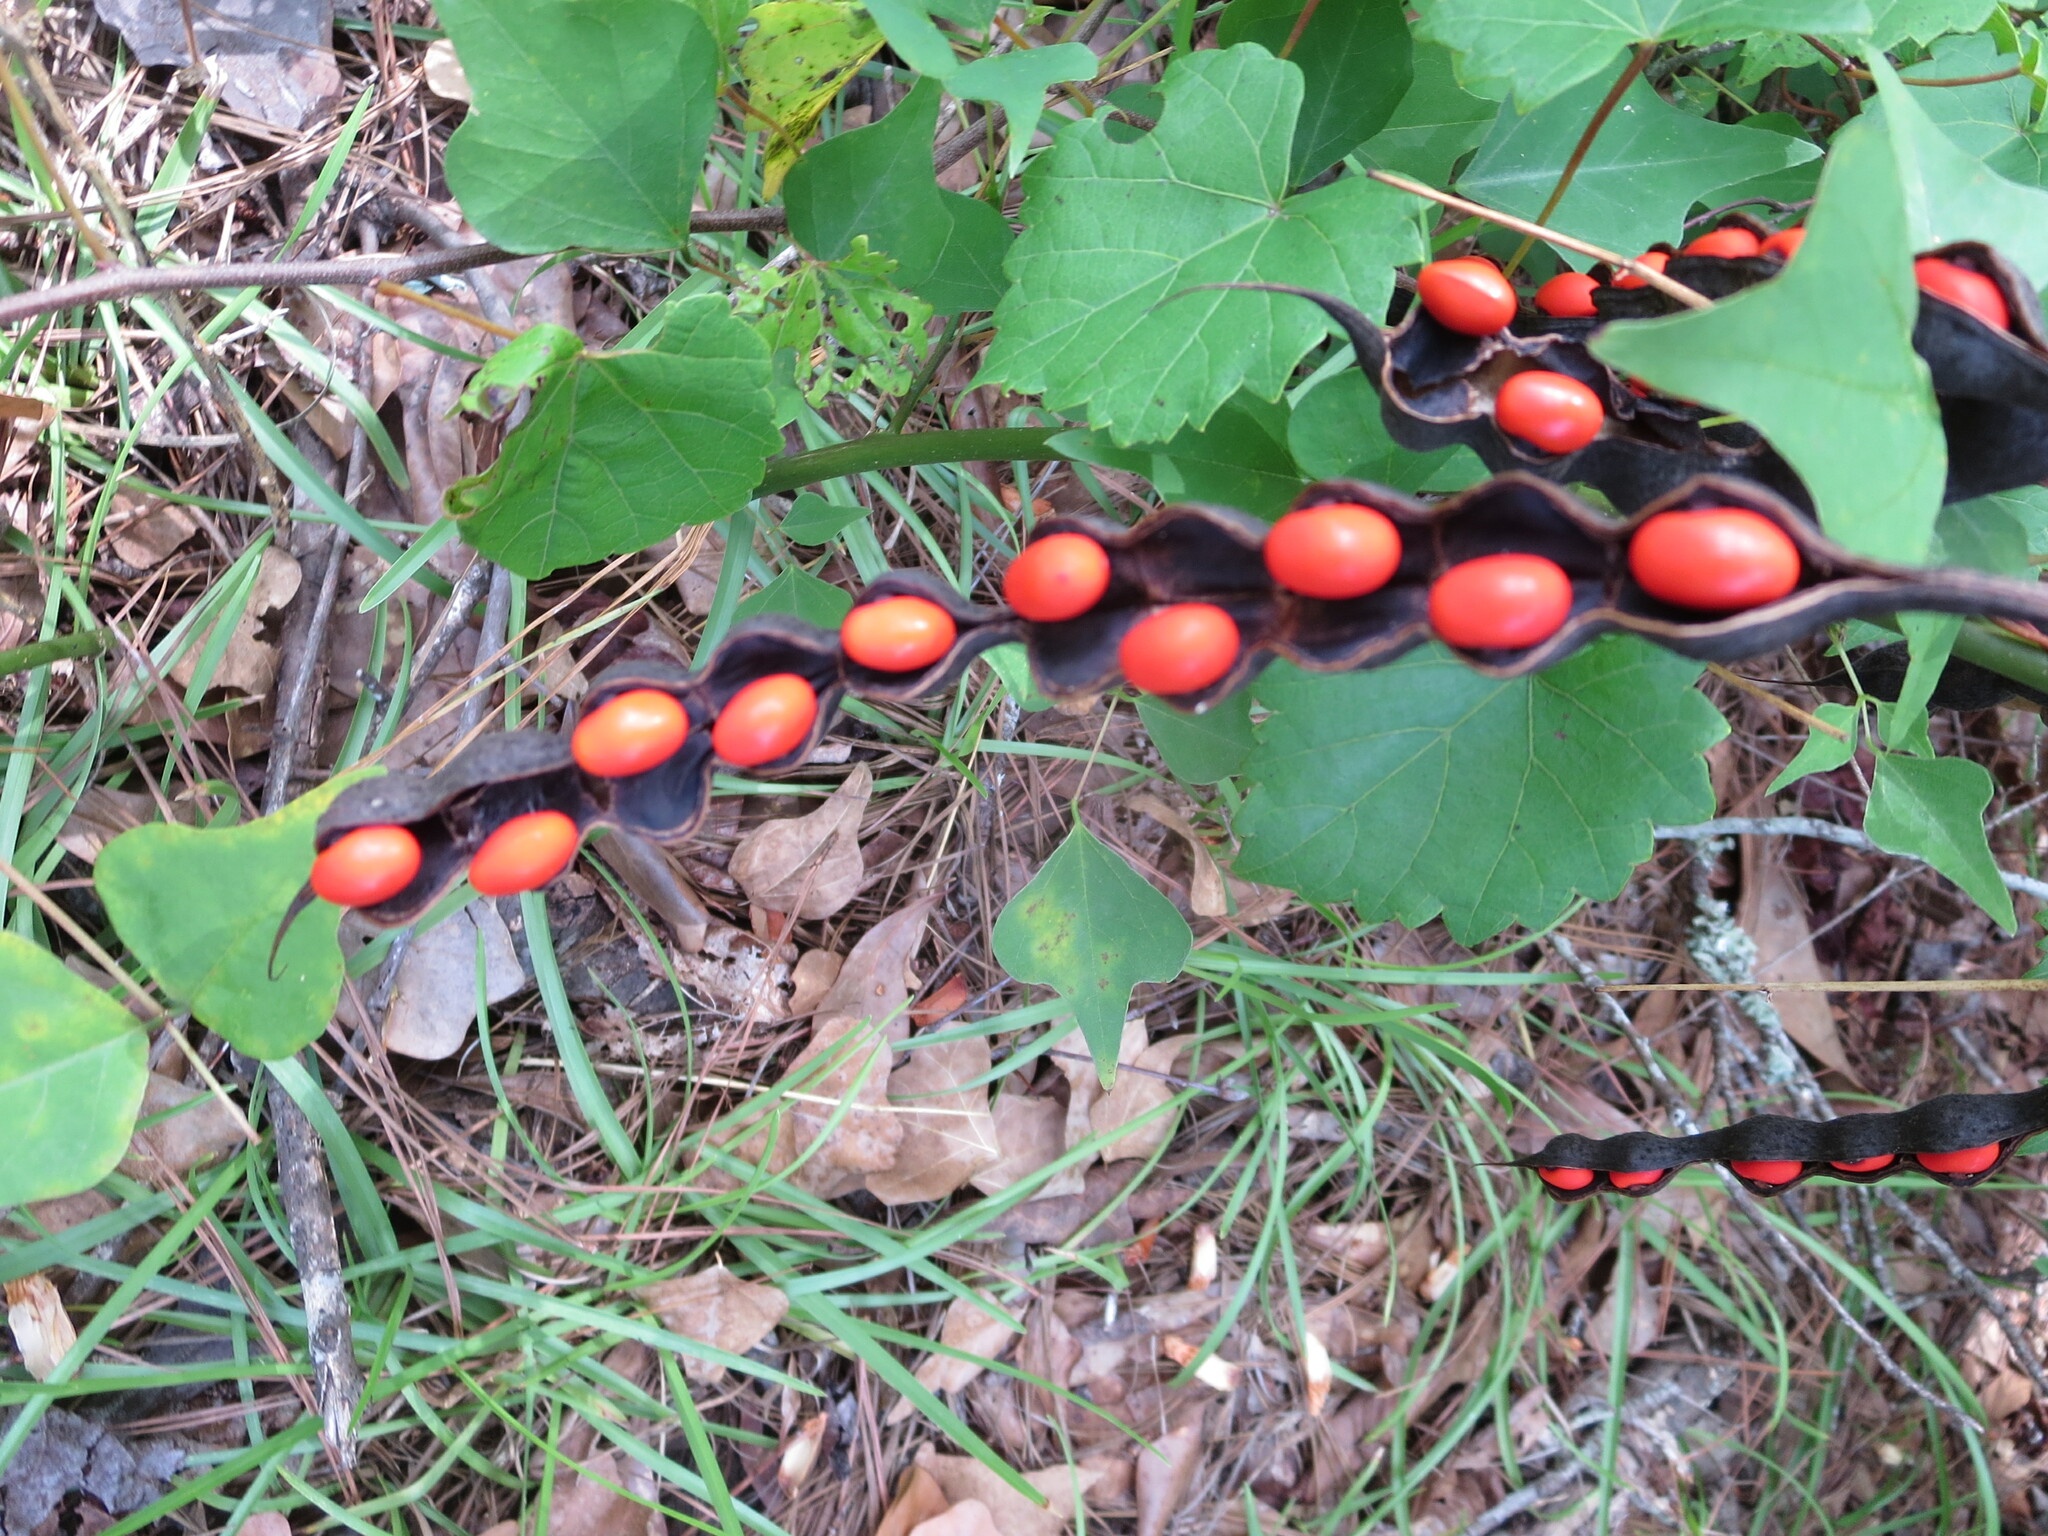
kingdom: Plantae
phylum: Tracheophyta
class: Magnoliopsida
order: Fabales
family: Fabaceae
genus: Erythrina
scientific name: Erythrina herbacea
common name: Coral-bean
